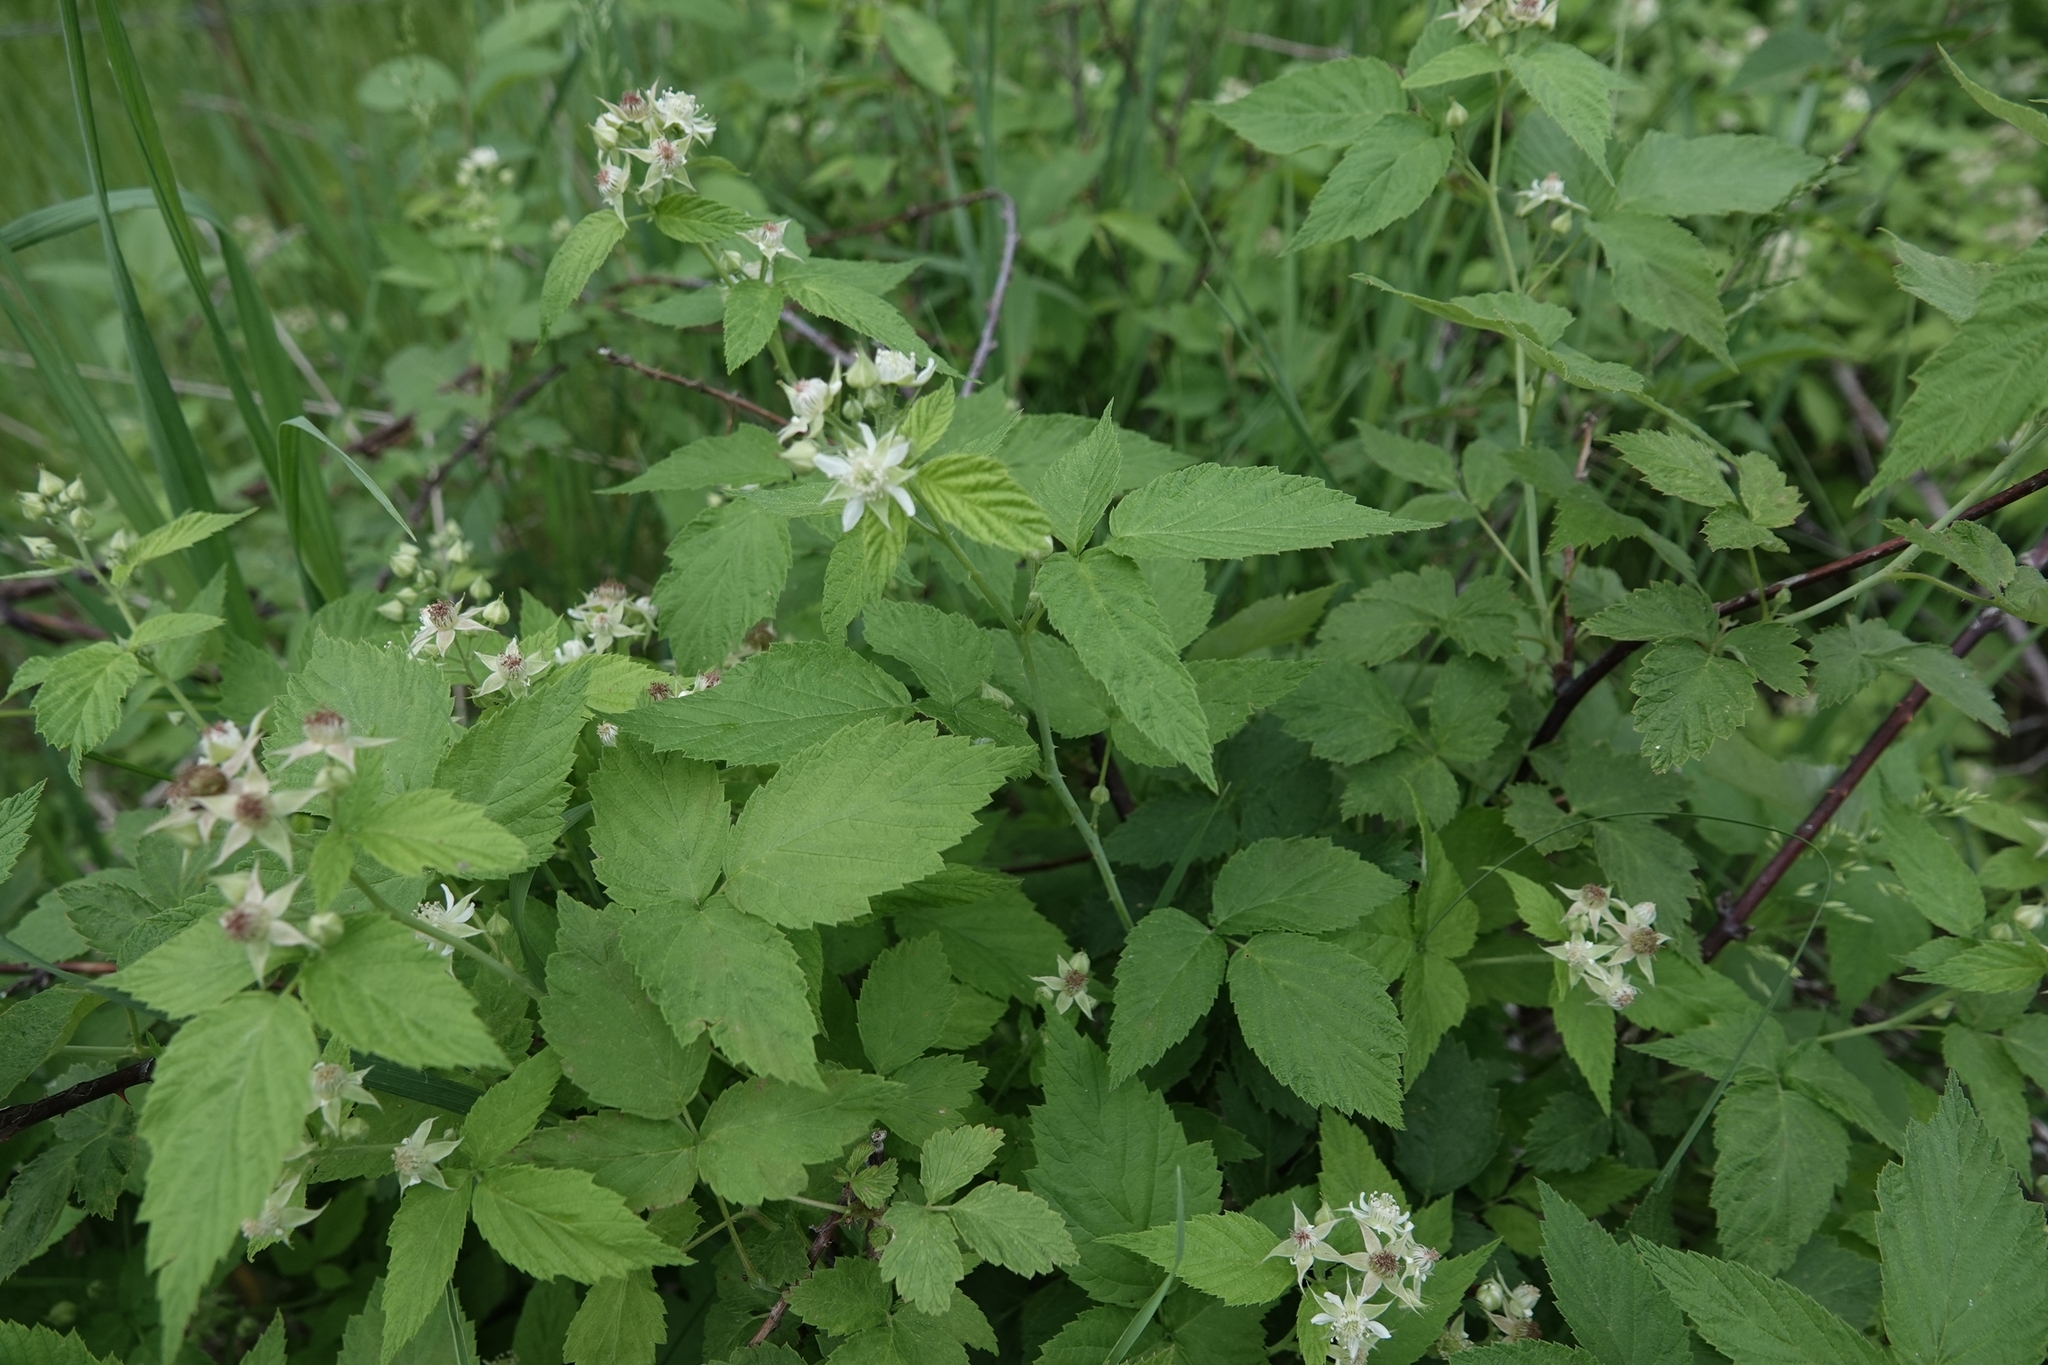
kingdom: Plantae
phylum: Tracheophyta
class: Magnoliopsida
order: Rosales
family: Rosaceae
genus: Rubus
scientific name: Rubus occidentalis
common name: Black raspberry
